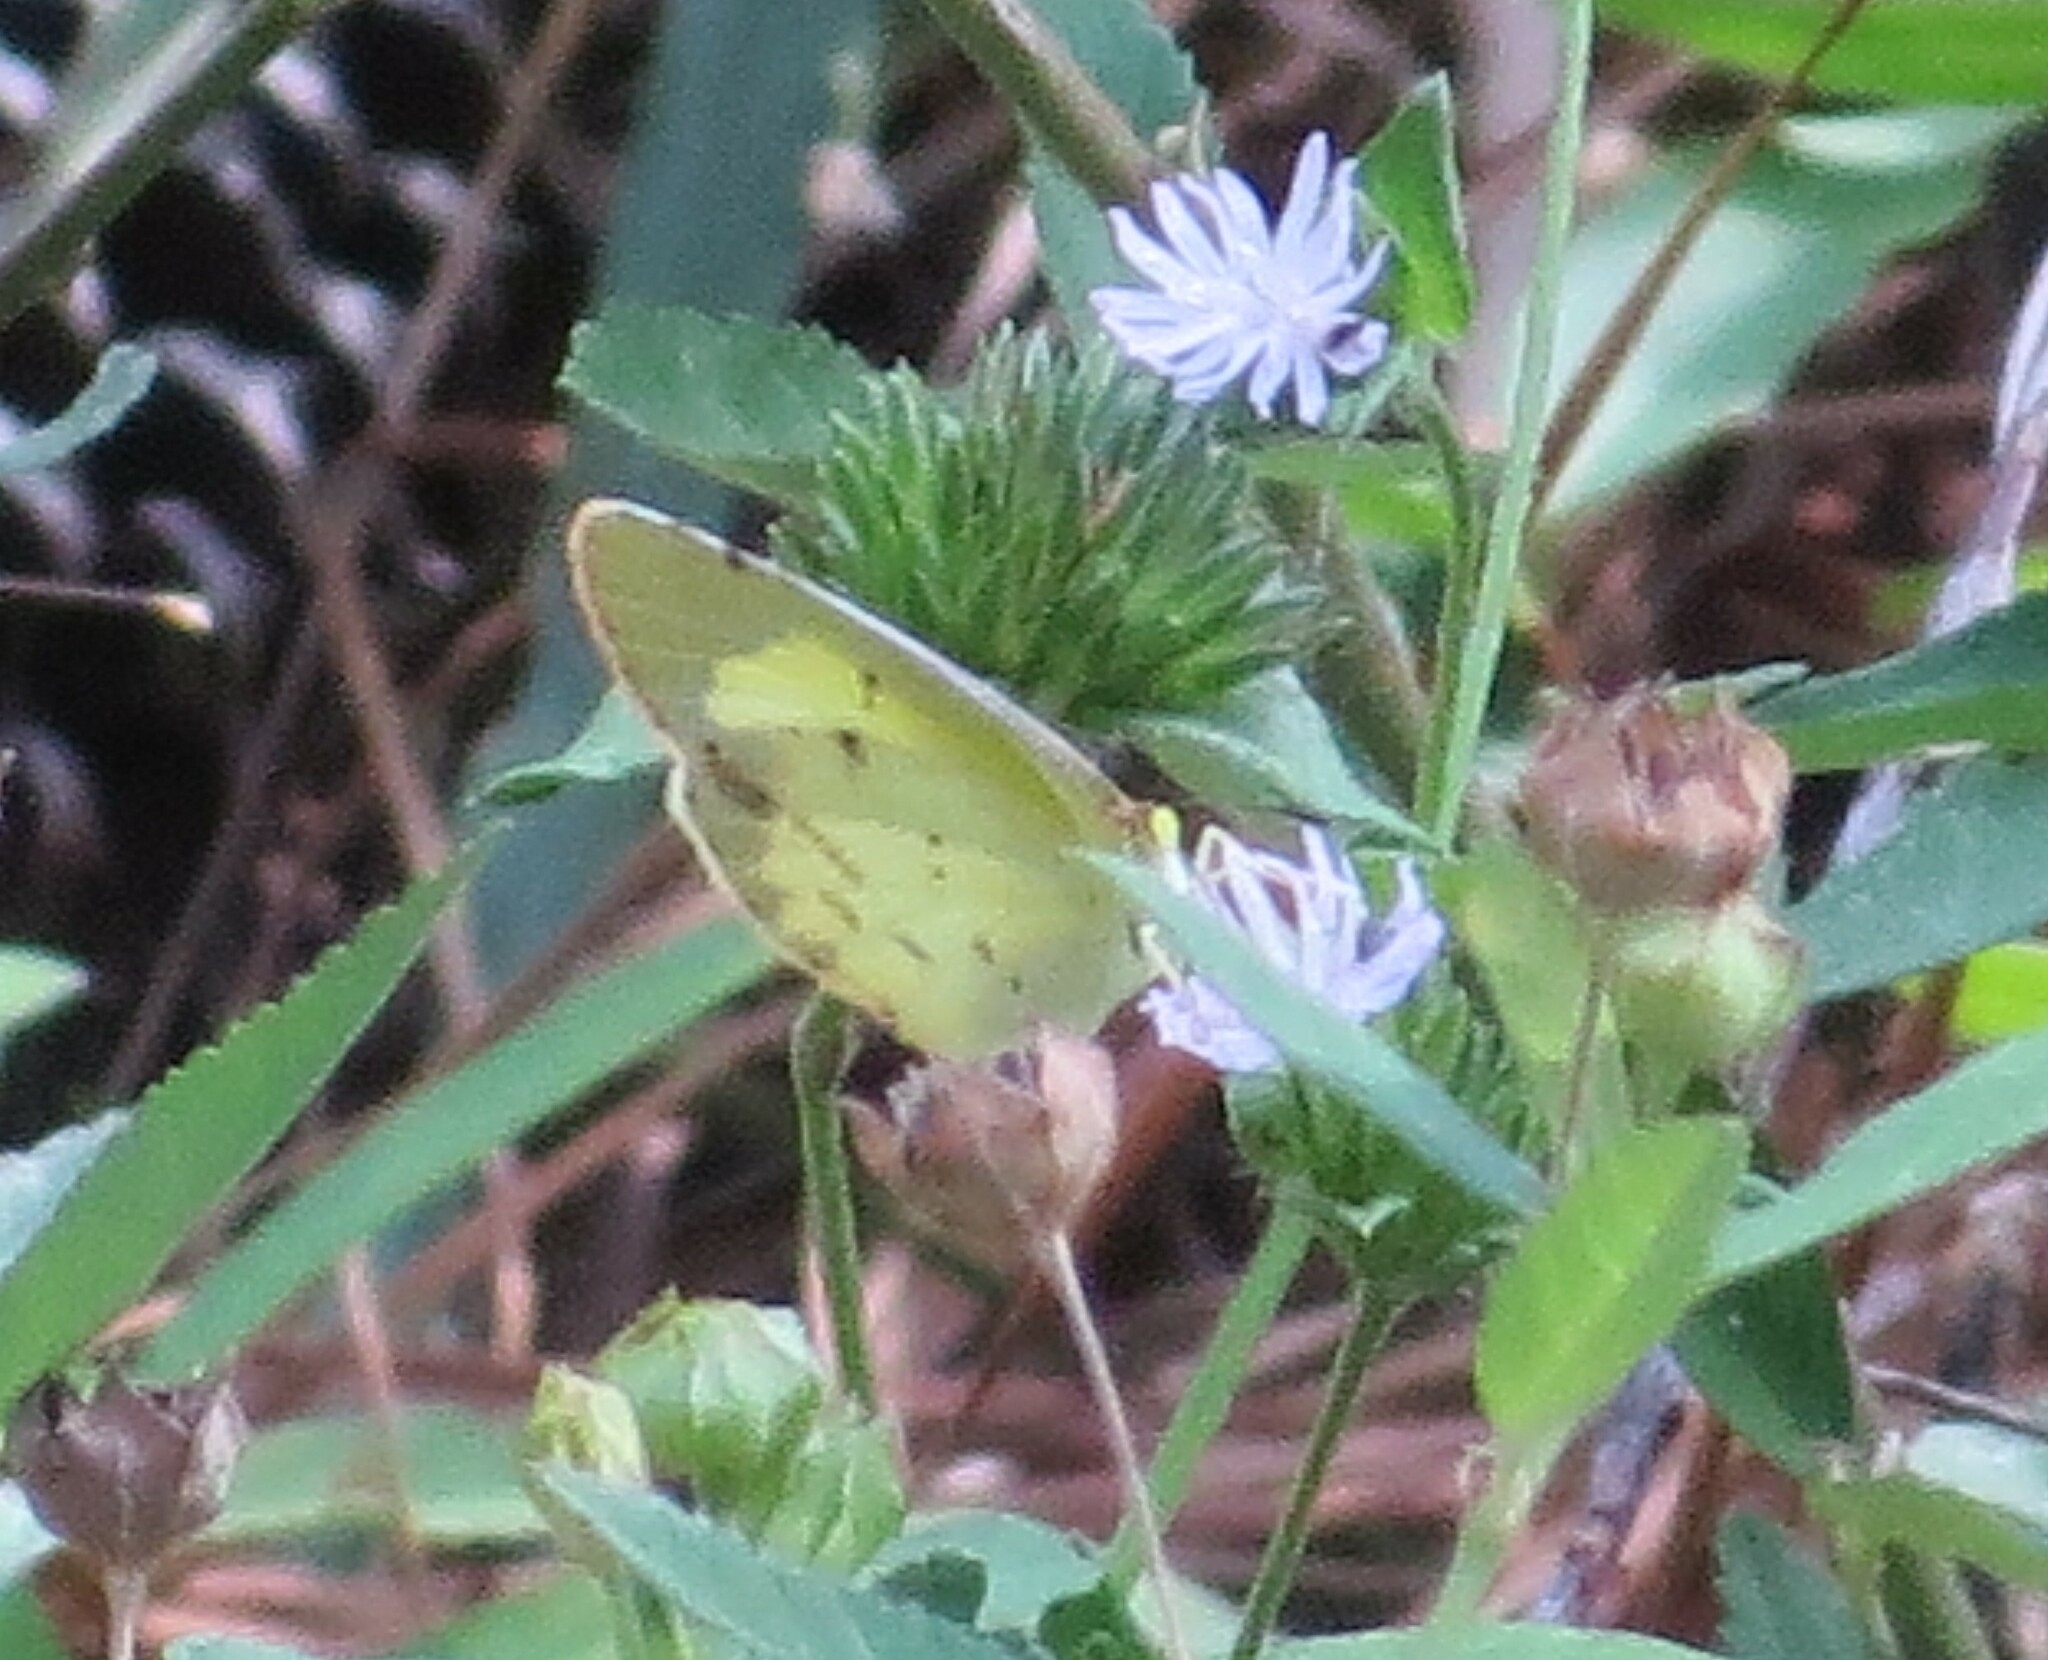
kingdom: Animalia
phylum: Arthropoda
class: Insecta
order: Lepidoptera
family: Pieridae
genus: Pyrisitia
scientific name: Pyrisitia lisa
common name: Little yellow
